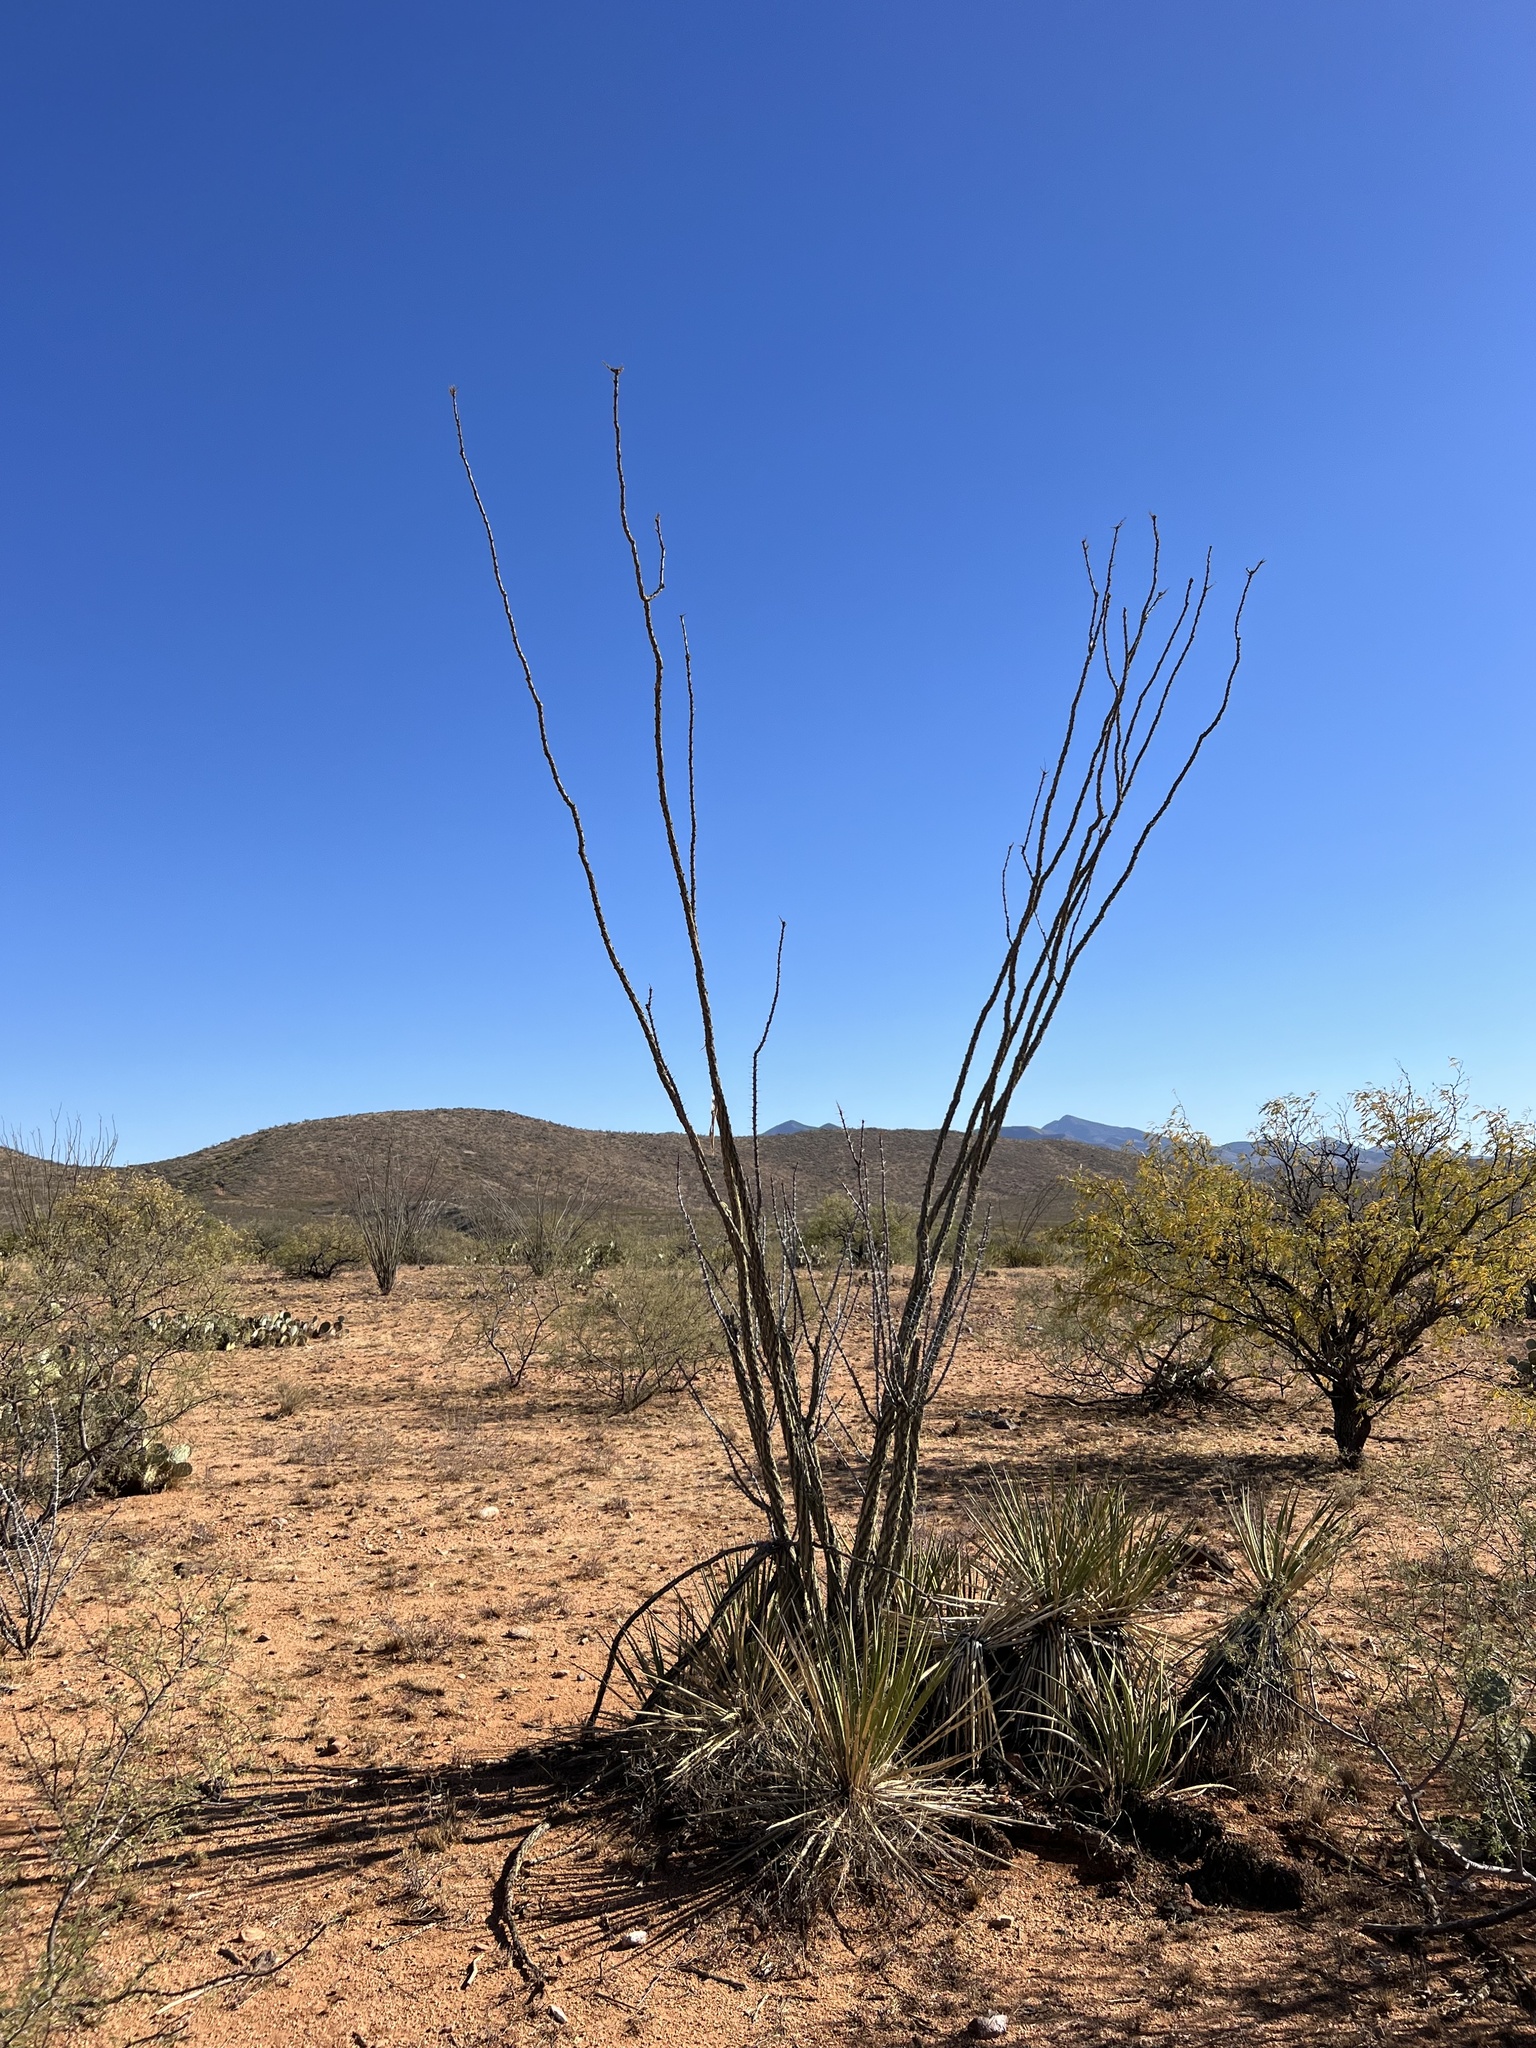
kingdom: Plantae
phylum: Tracheophyta
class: Magnoliopsida
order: Ericales
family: Fouquieriaceae
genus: Fouquieria
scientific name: Fouquieria splendens
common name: Vine-cactus
